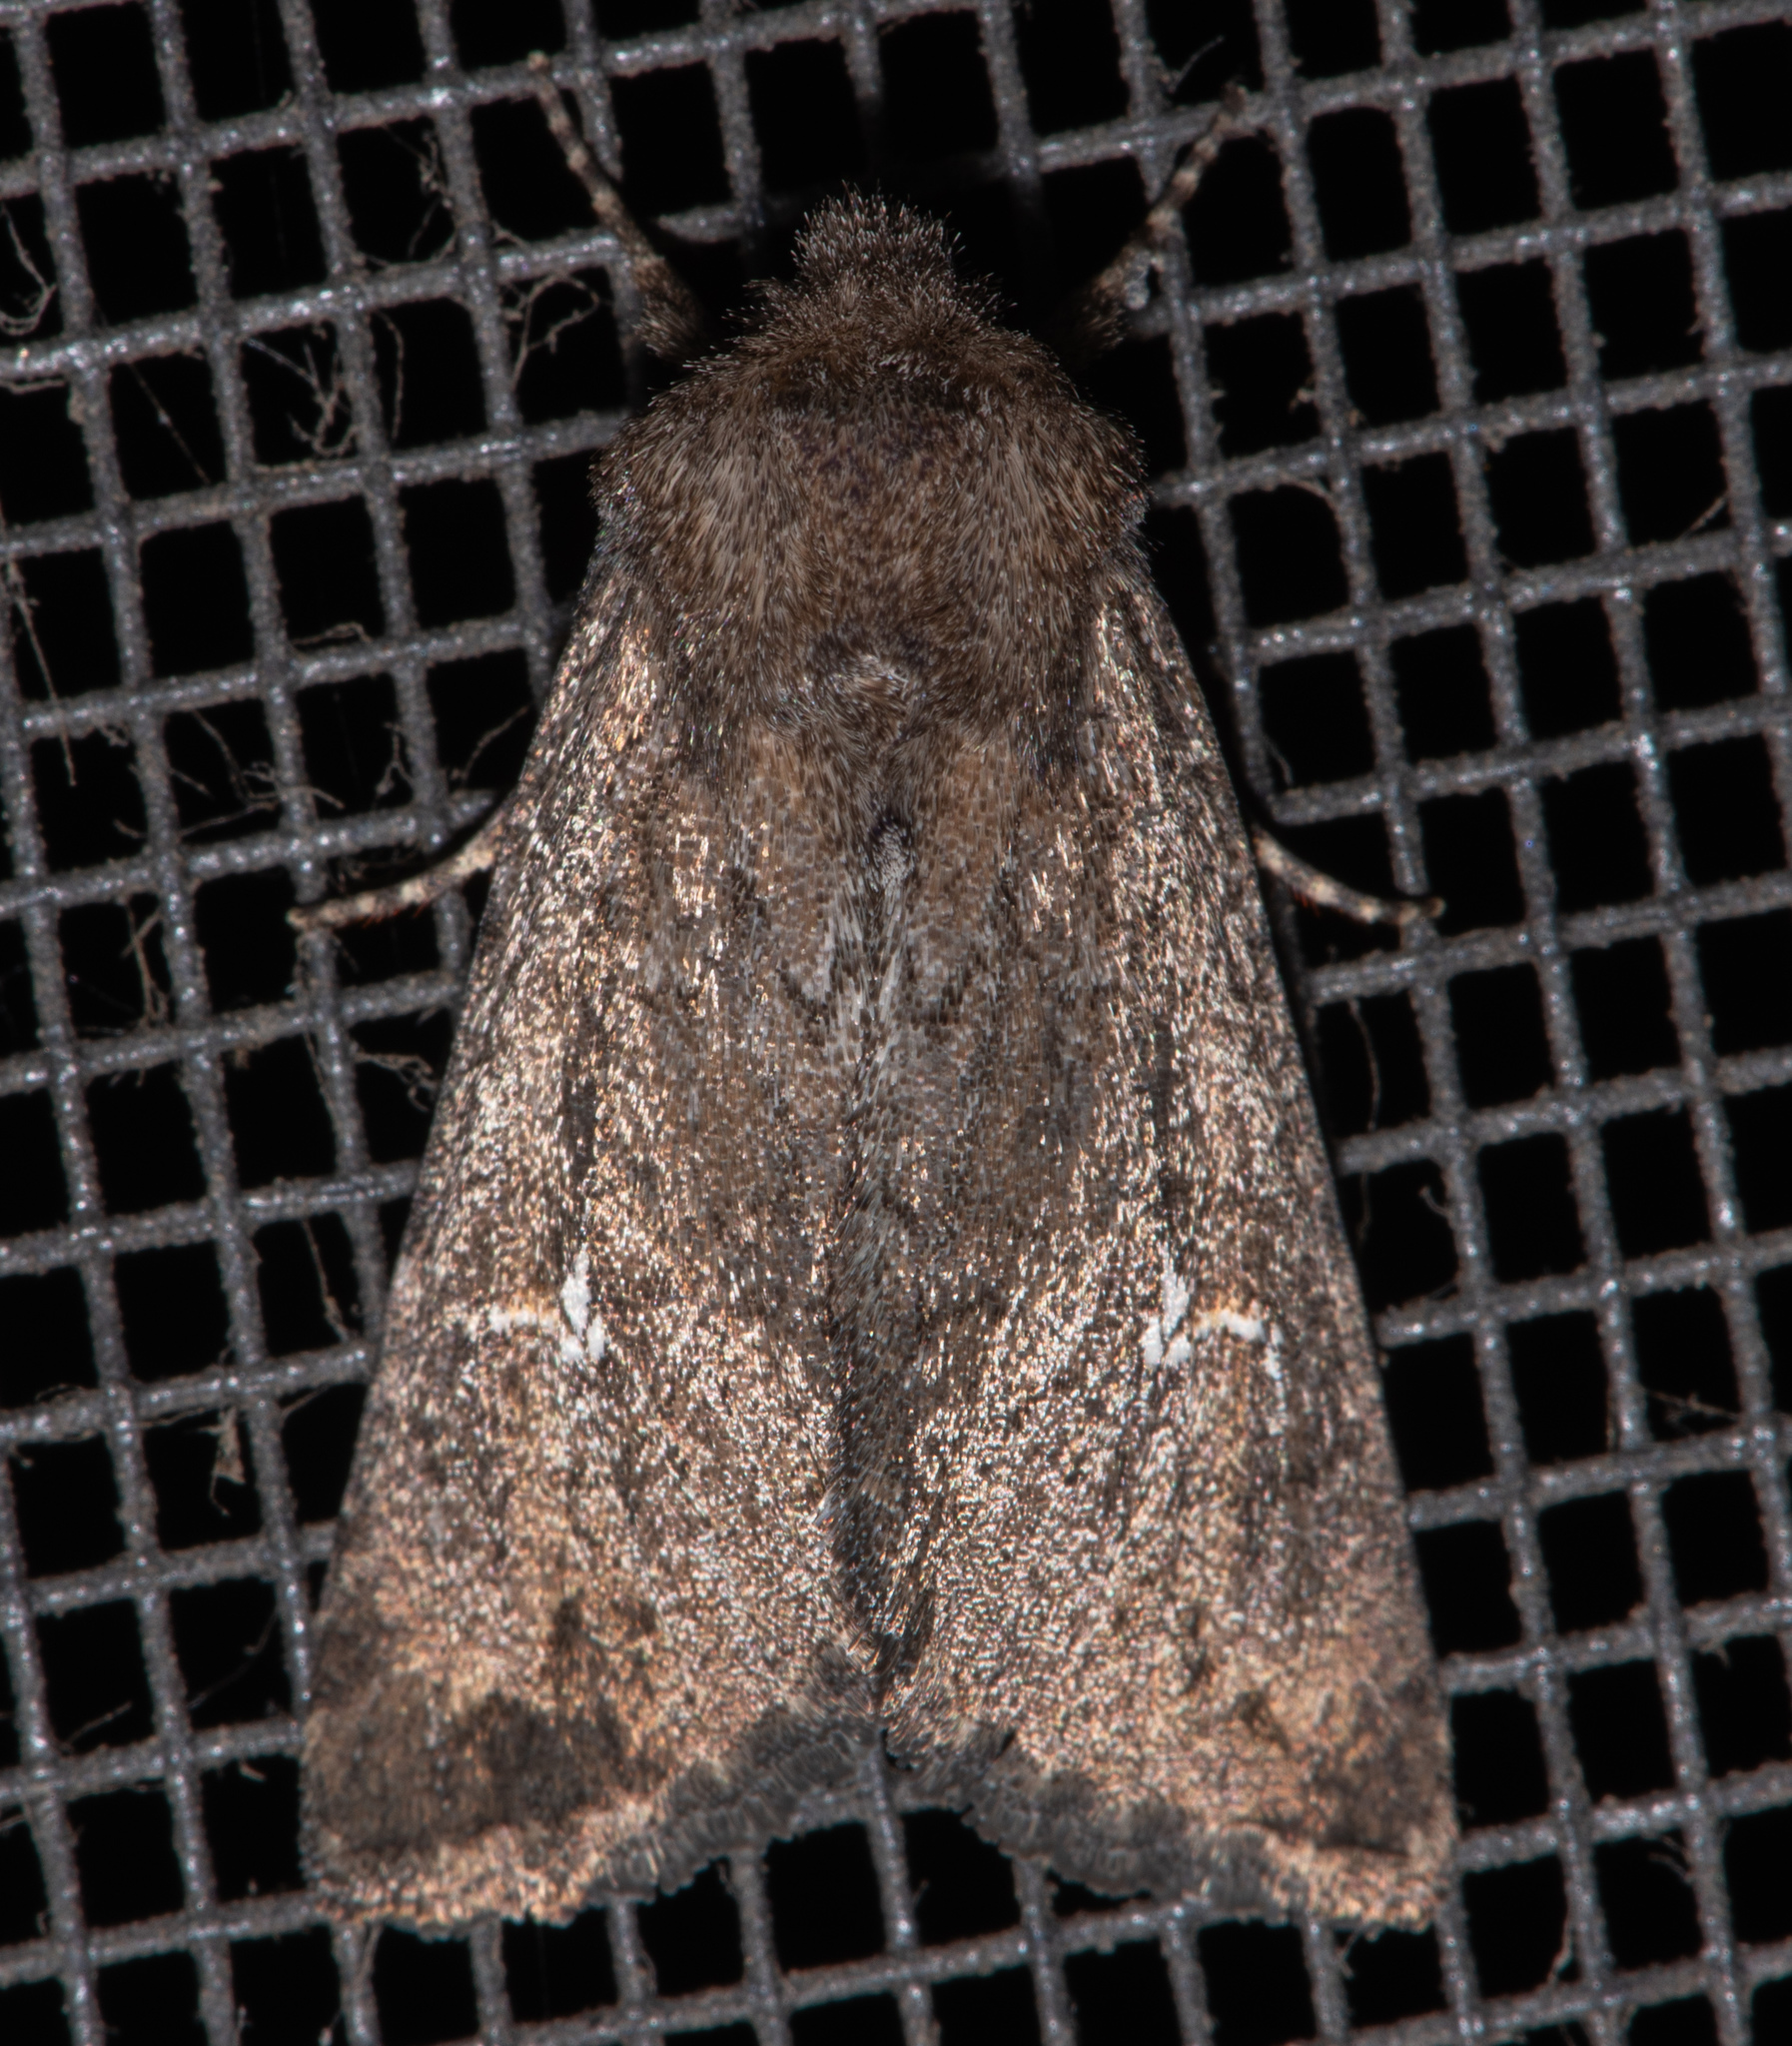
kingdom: Animalia
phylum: Arthropoda
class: Insecta
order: Lepidoptera
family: Noctuidae
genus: Tricholita
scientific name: Tricholita chipeta
